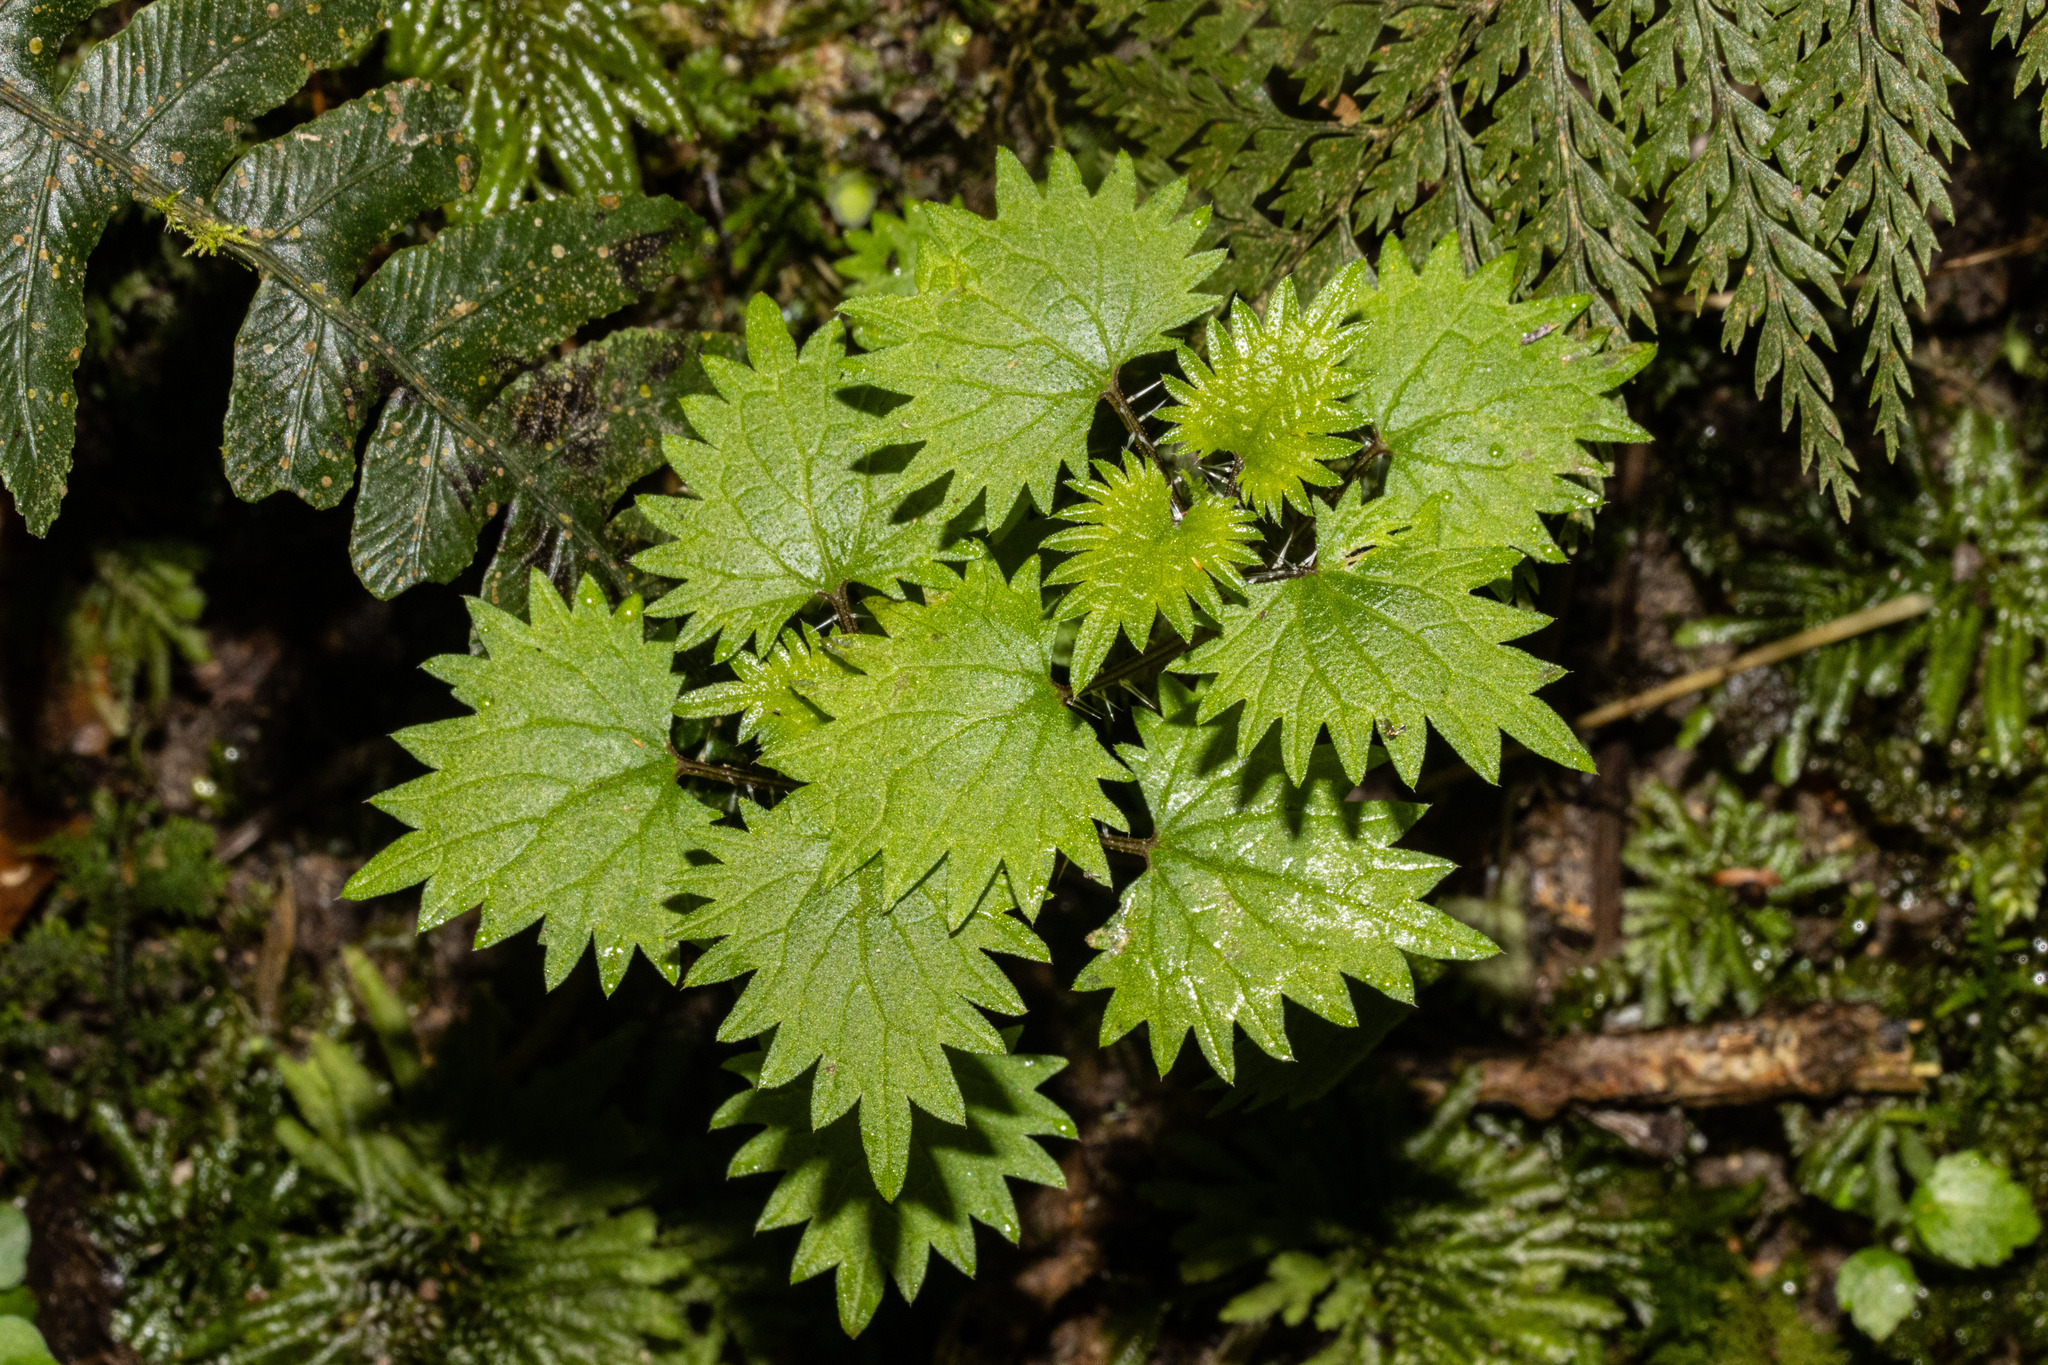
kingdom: Plantae
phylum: Tracheophyta
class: Magnoliopsida
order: Rosales
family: Urticaceae
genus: Urtica
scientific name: Urtica sykesii
